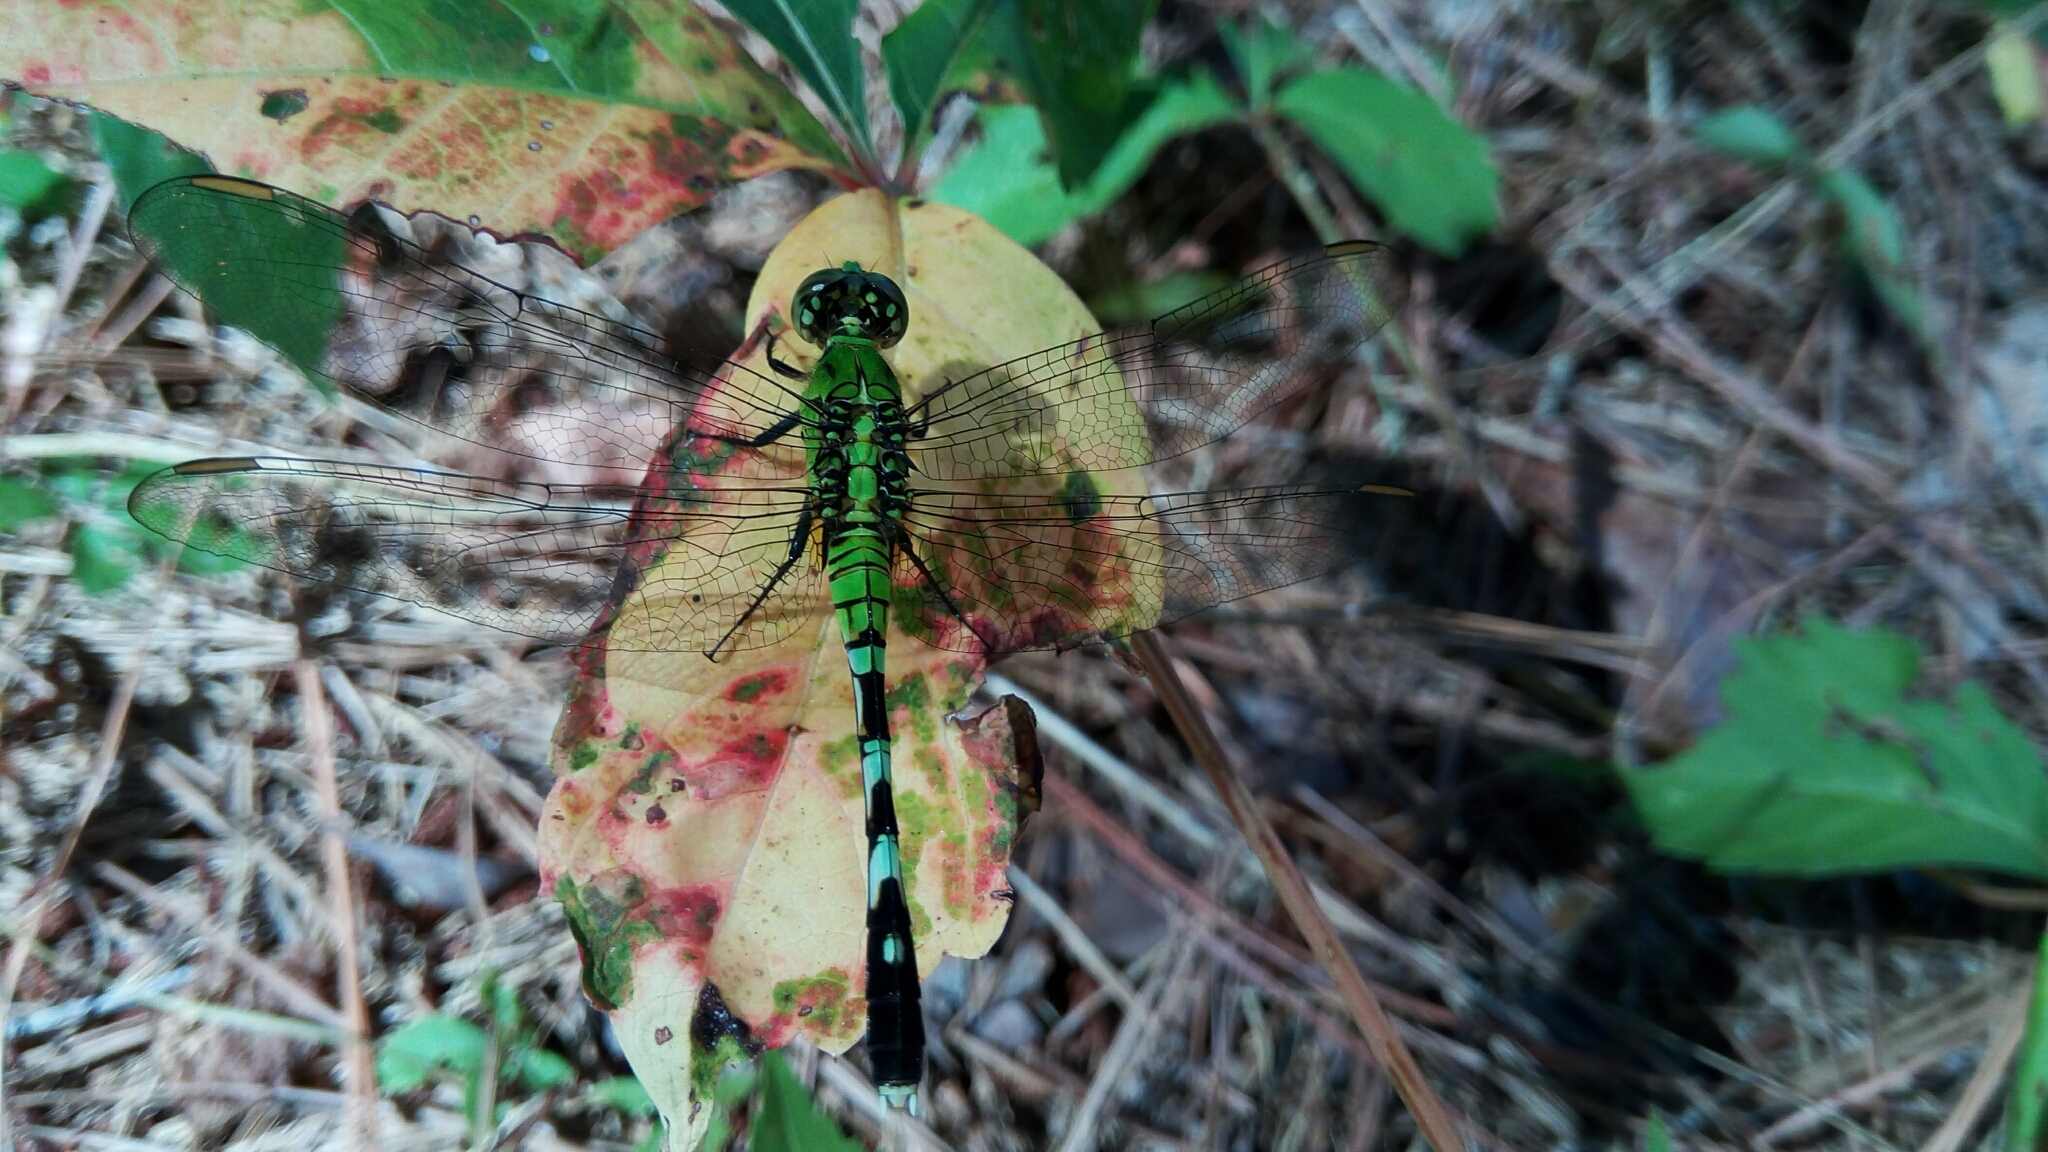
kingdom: Animalia
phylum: Arthropoda
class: Insecta
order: Odonata
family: Libellulidae
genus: Erythemis
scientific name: Erythemis simplicicollis
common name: Eastern pondhawk
